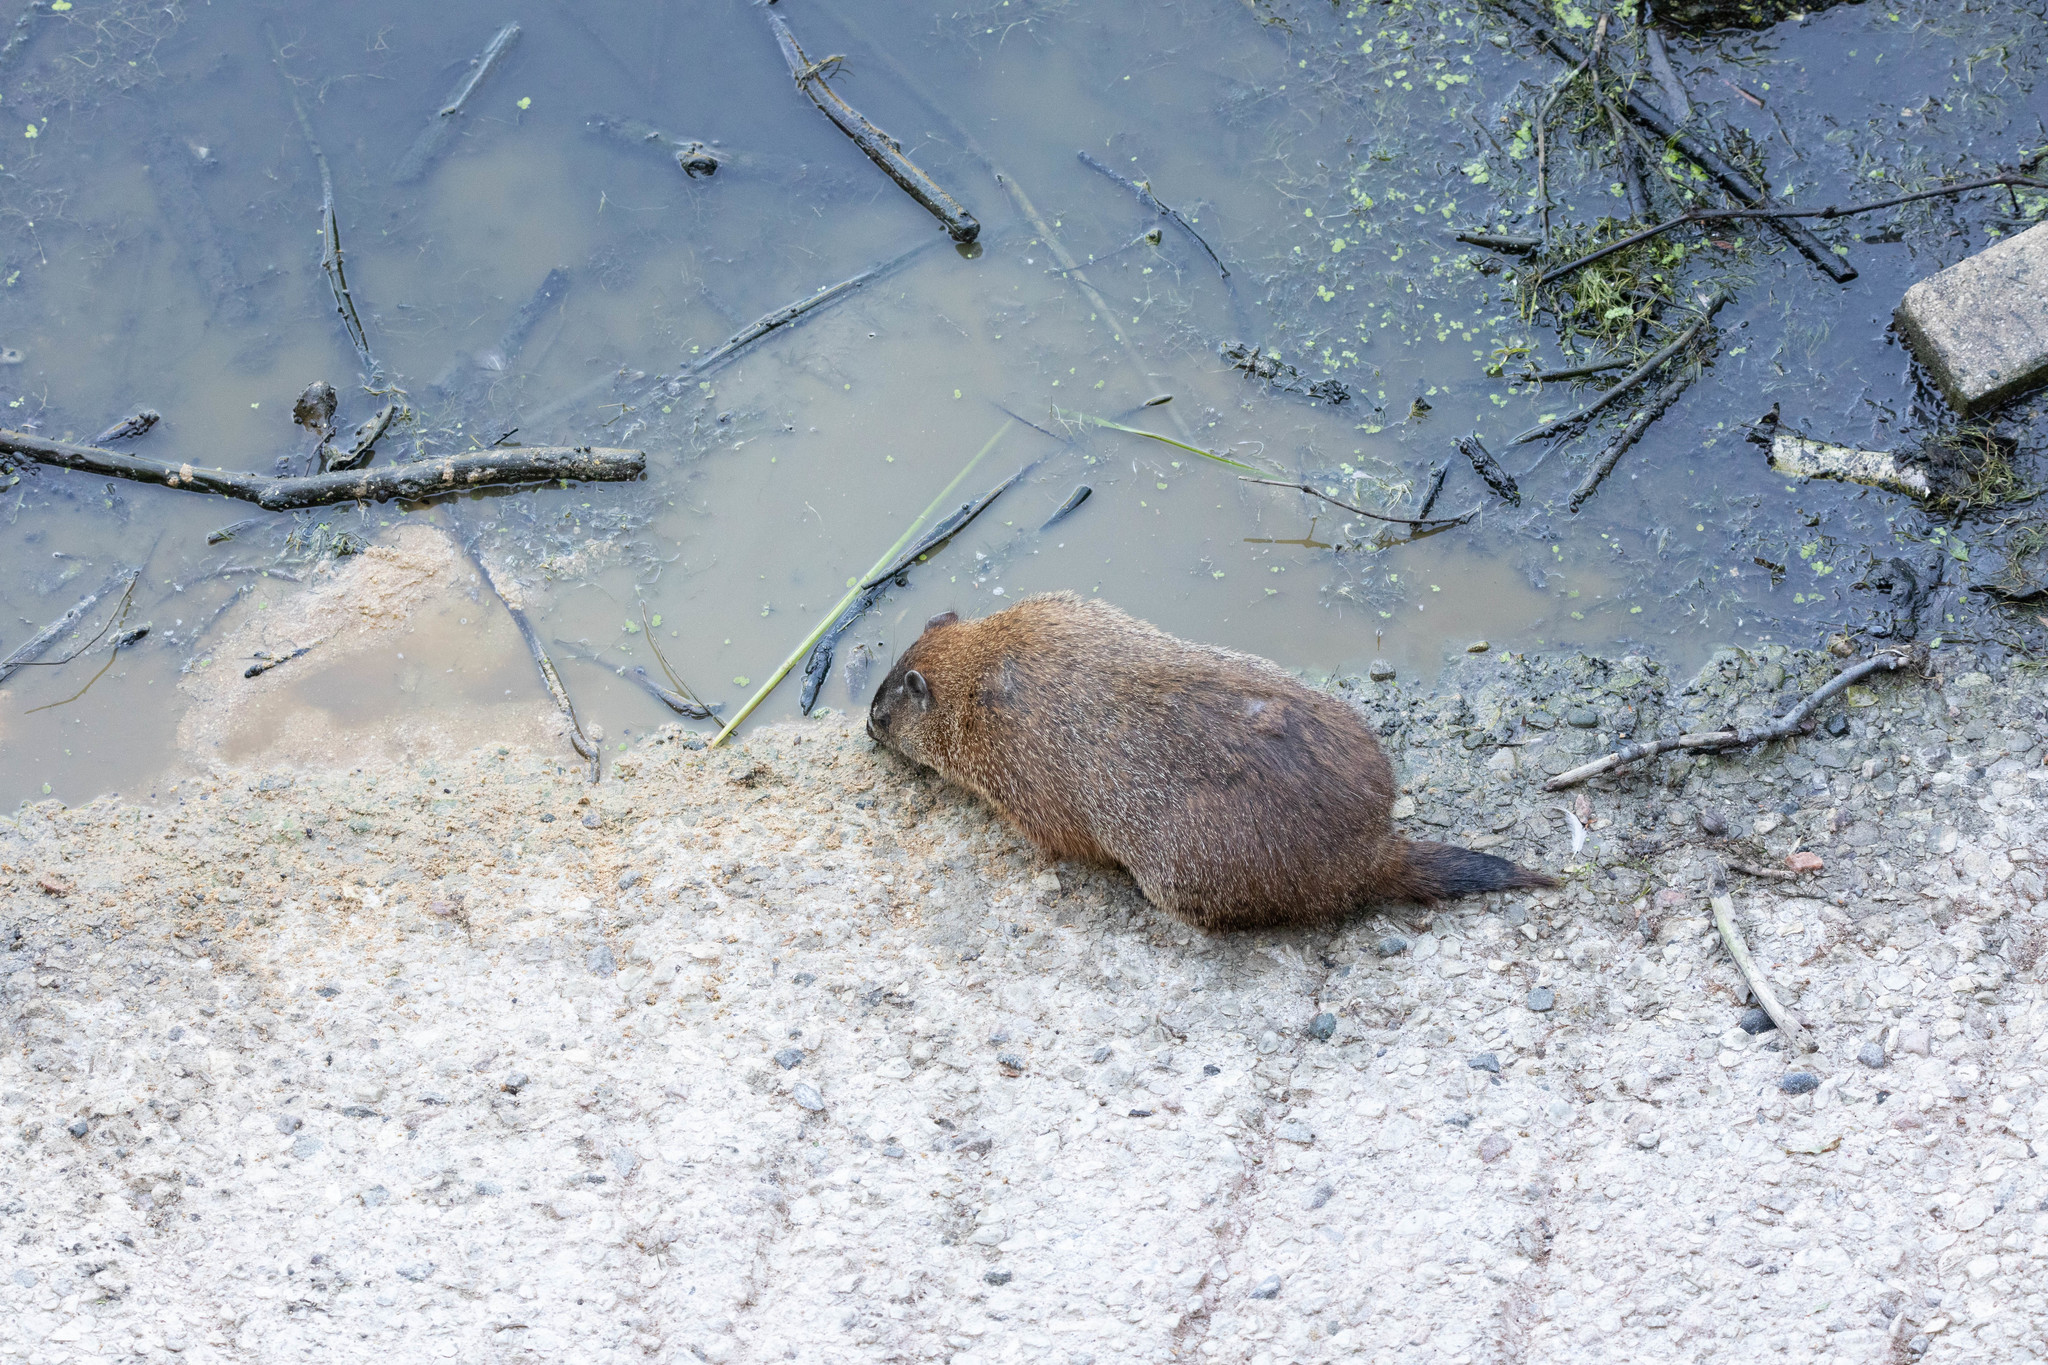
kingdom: Animalia
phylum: Chordata
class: Mammalia
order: Rodentia
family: Sciuridae
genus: Marmota
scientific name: Marmota monax
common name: Groundhog
